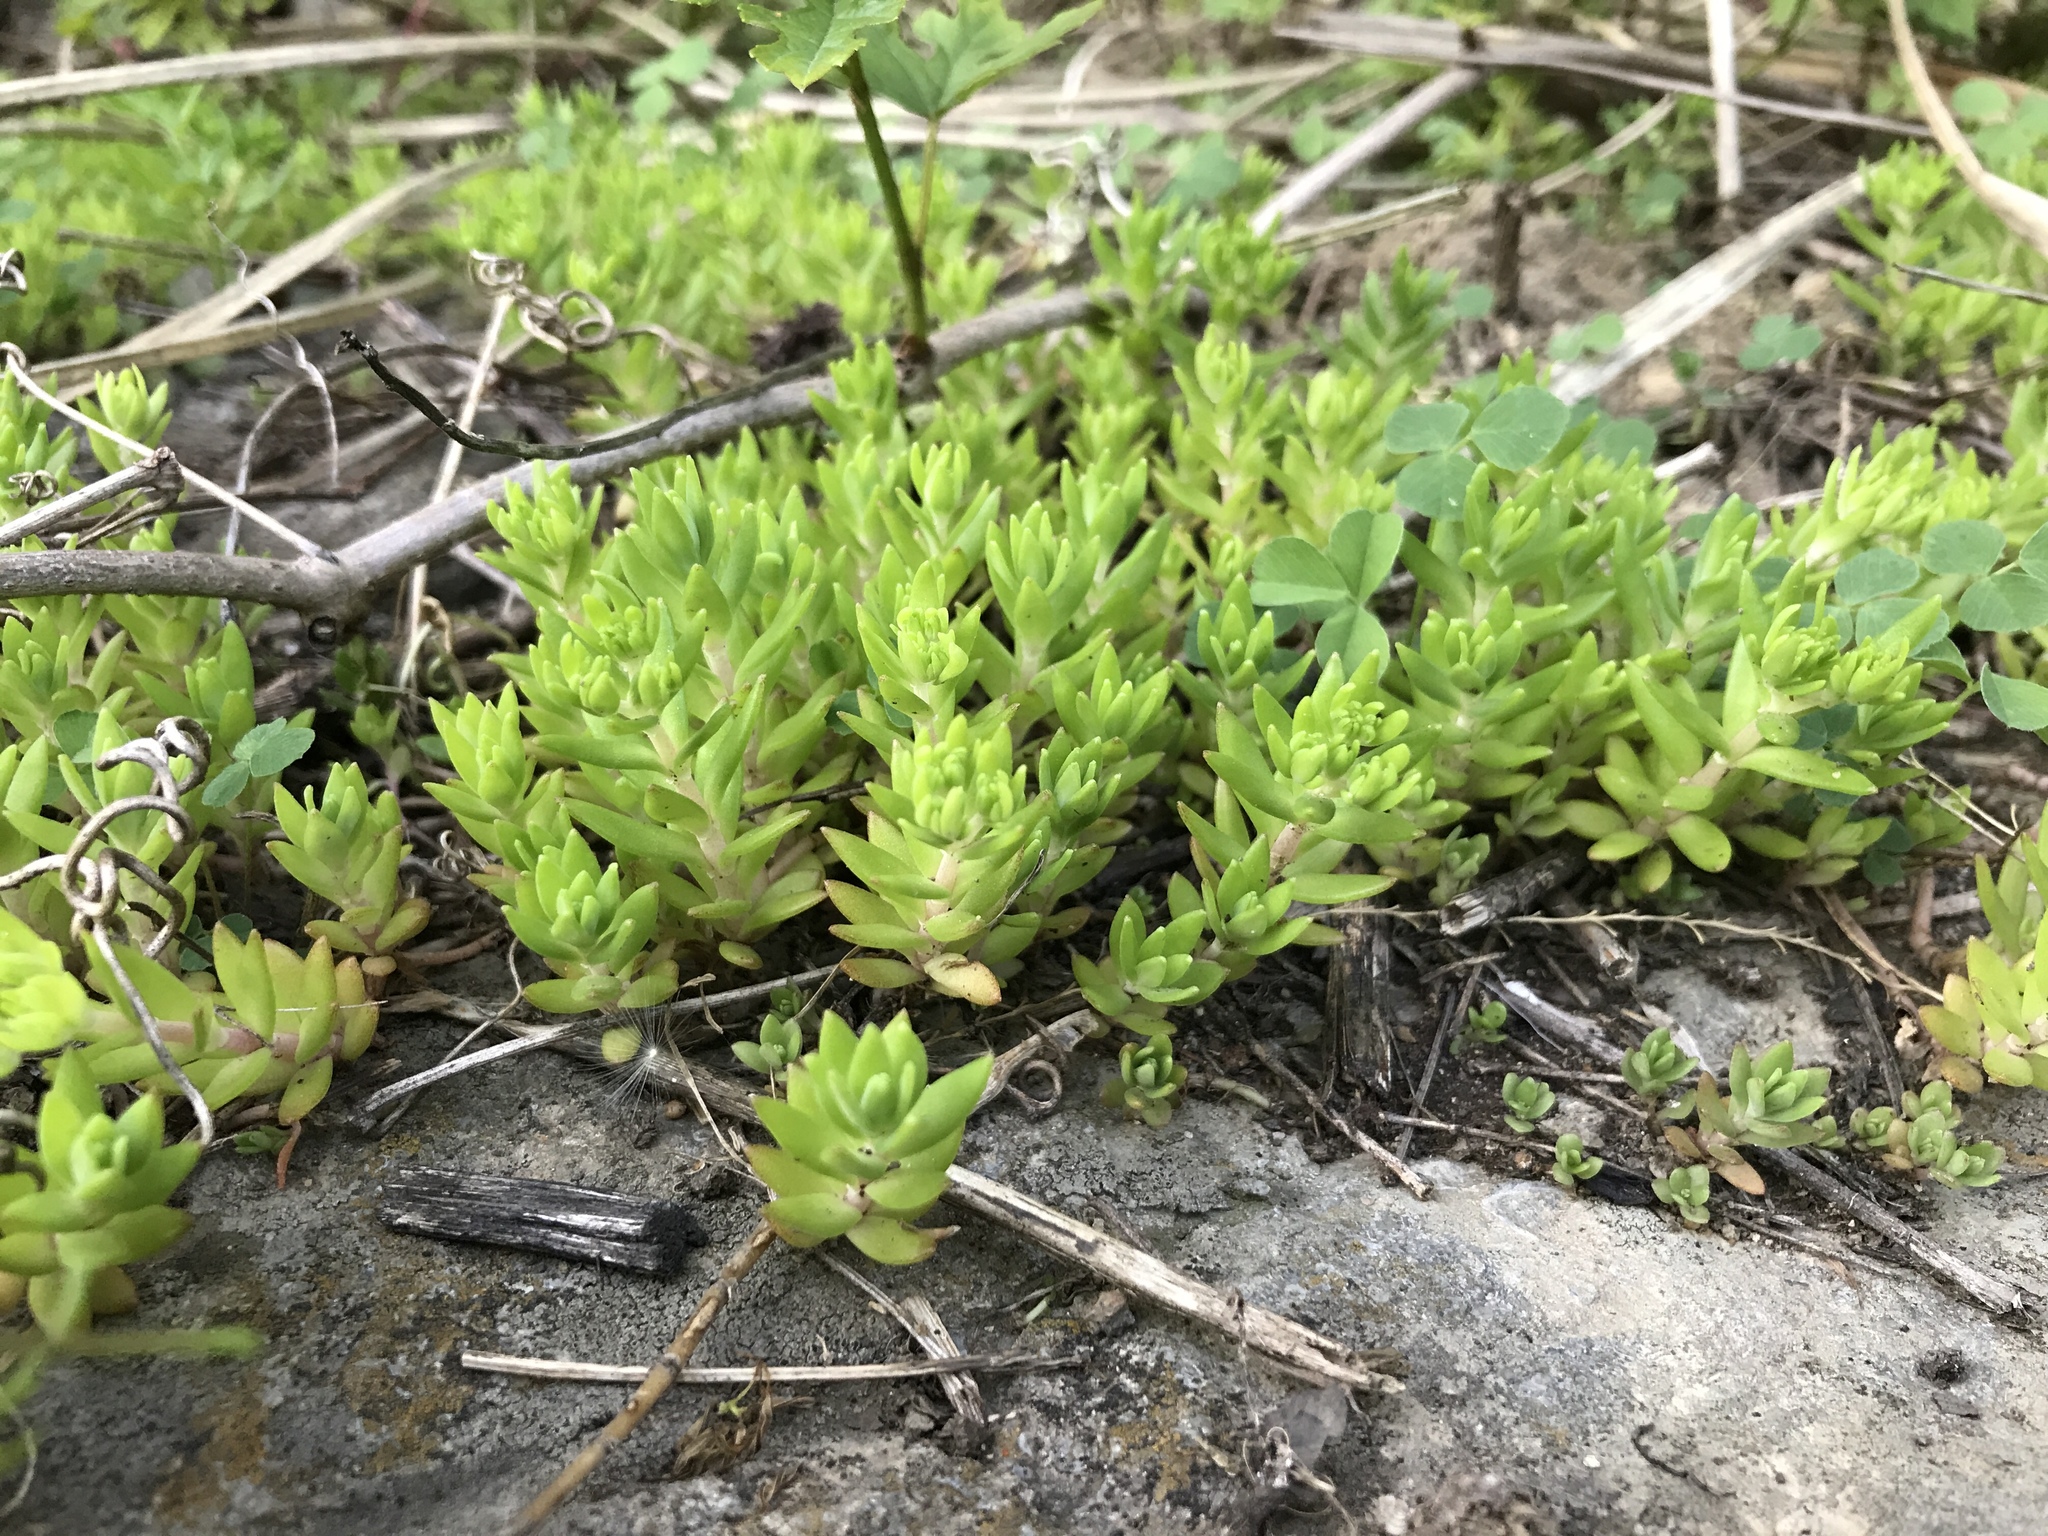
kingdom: Plantae
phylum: Tracheophyta
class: Magnoliopsida
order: Saxifragales
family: Crassulaceae
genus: Sedum
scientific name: Sedum sarmentosum
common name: Stringy stonecrop
